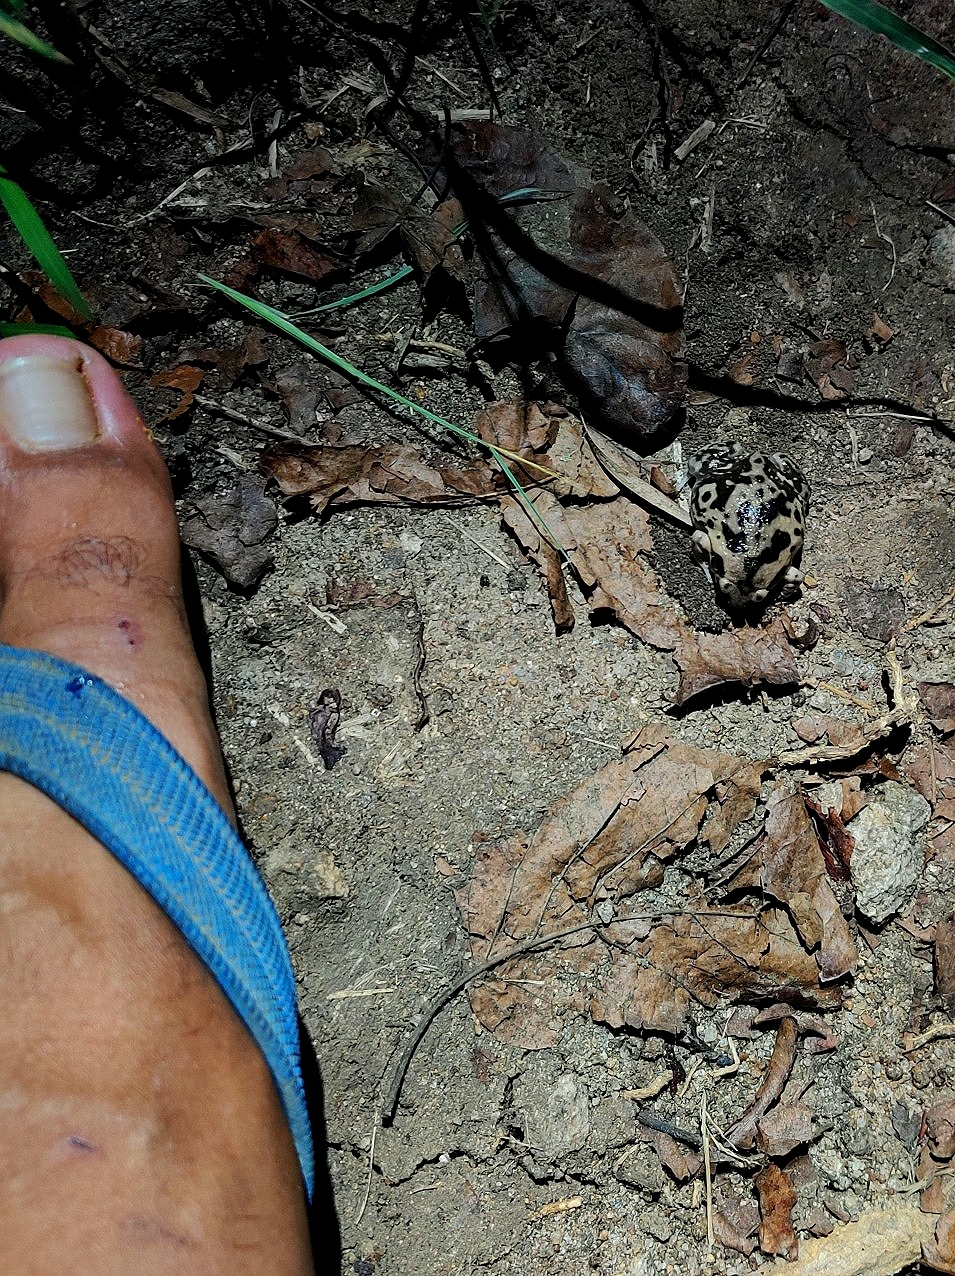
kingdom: Animalia
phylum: Chordata
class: Amphibia
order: Anura
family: Microhylidae
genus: Uperodon
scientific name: Uperodon systoma
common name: Balloon frog
